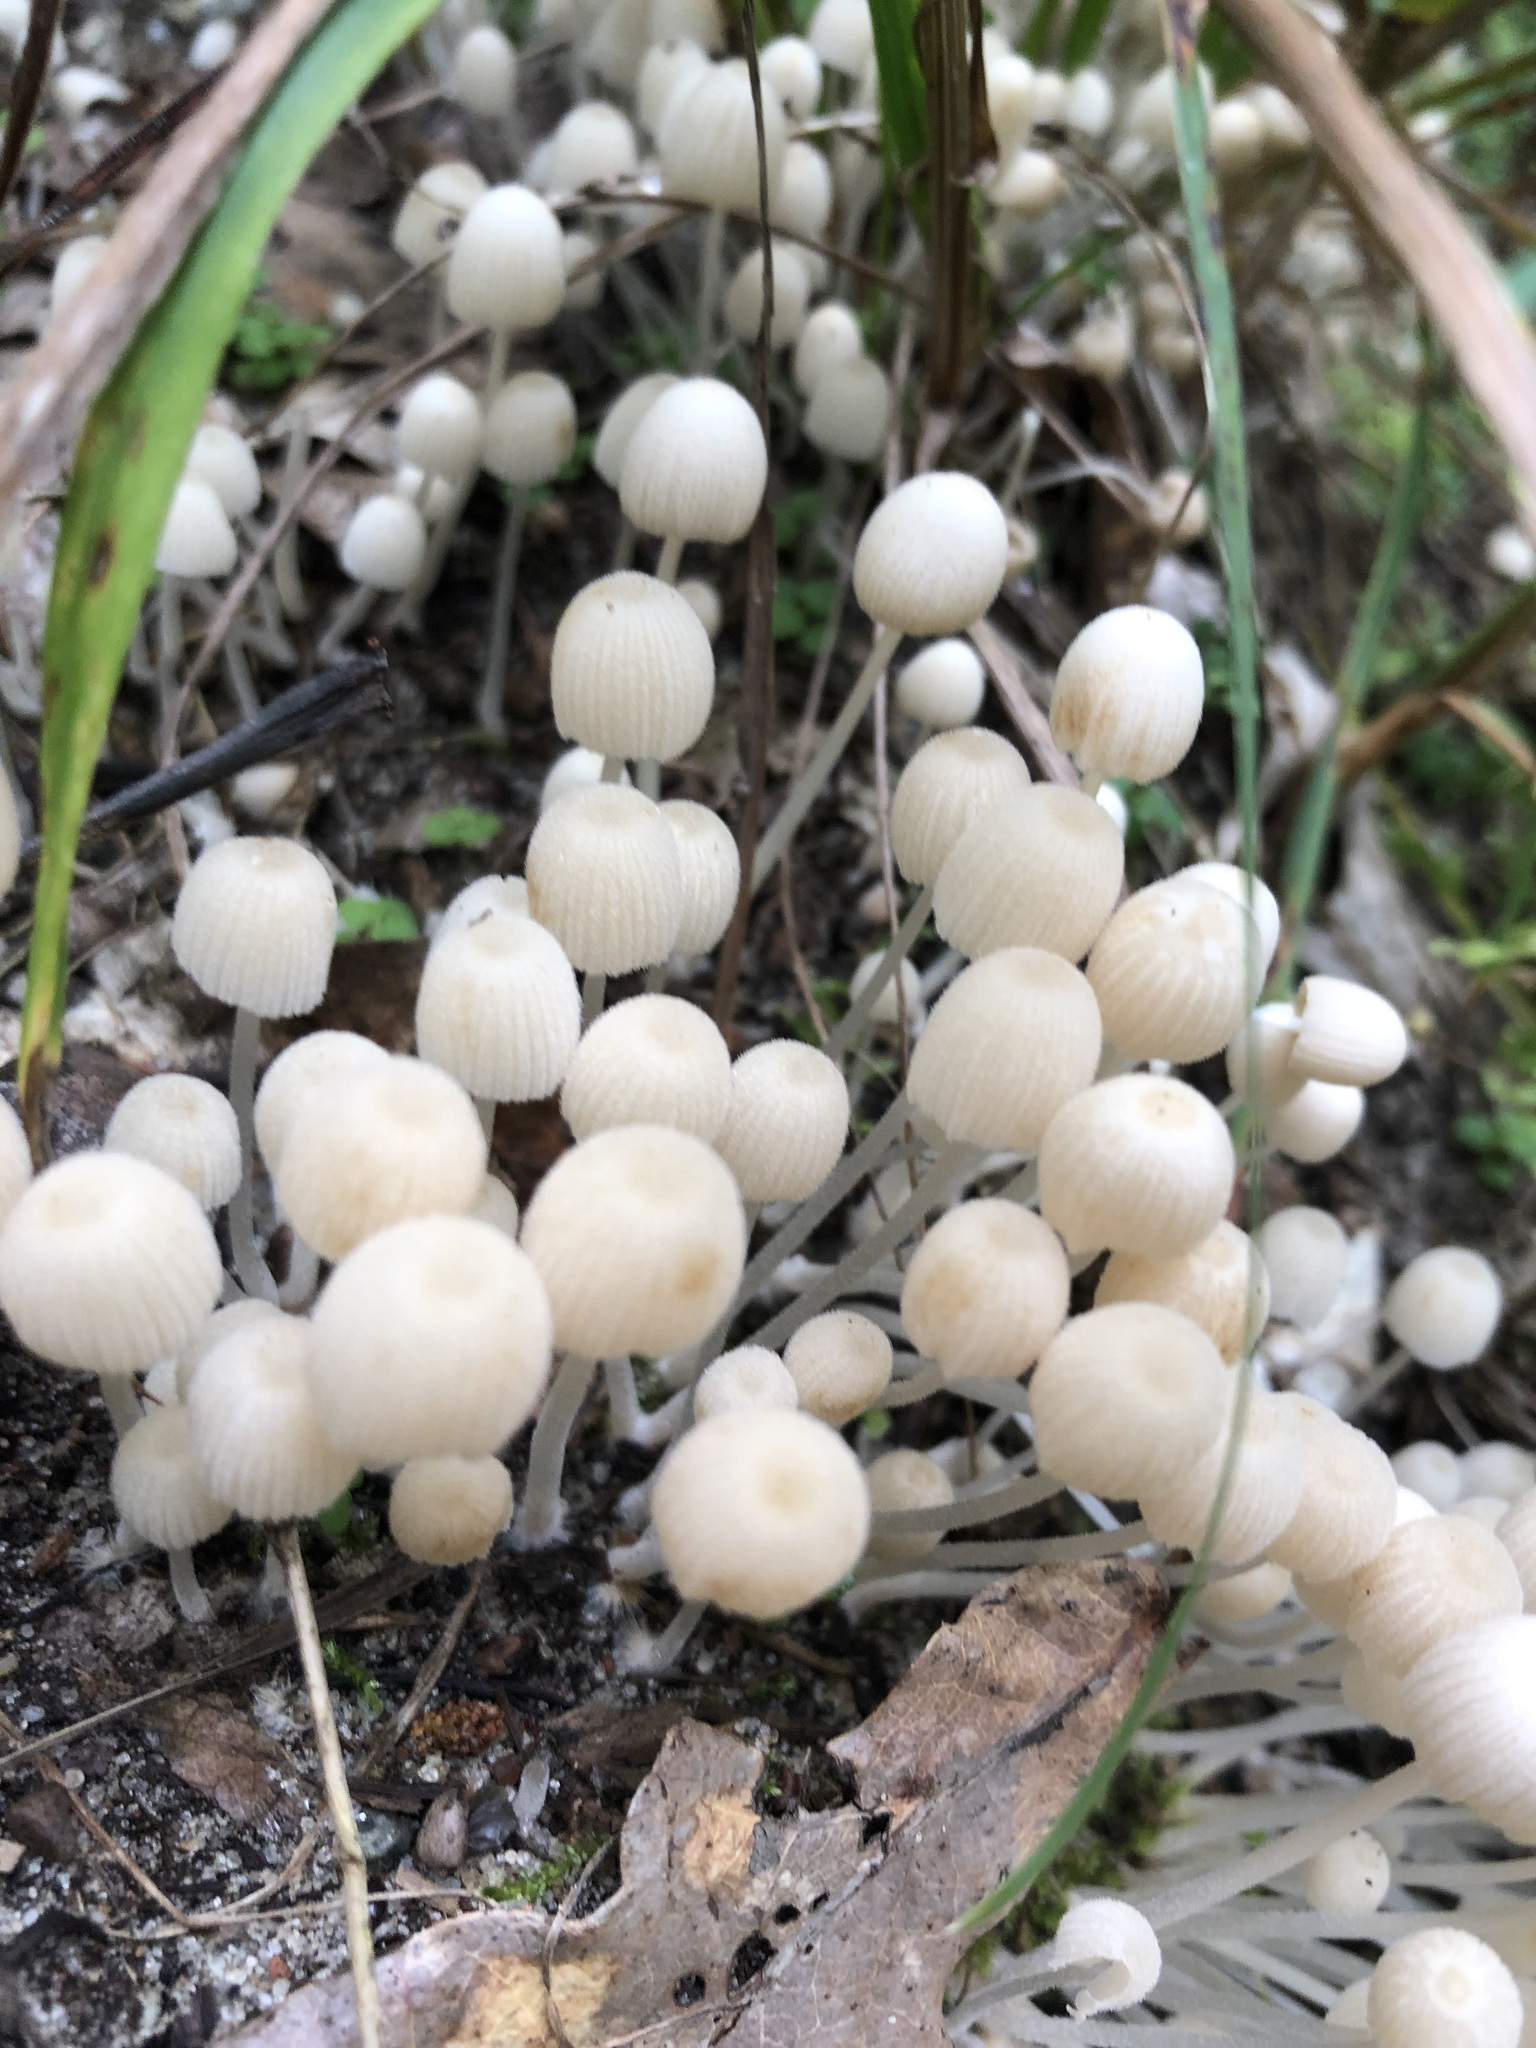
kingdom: Fungi
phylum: Basidiomycota
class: Agaricomycetes
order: Agaricales
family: Psathyrellaceae
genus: Coprinellus
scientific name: Coprinellus disseminatus
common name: Fairies' bonnets
